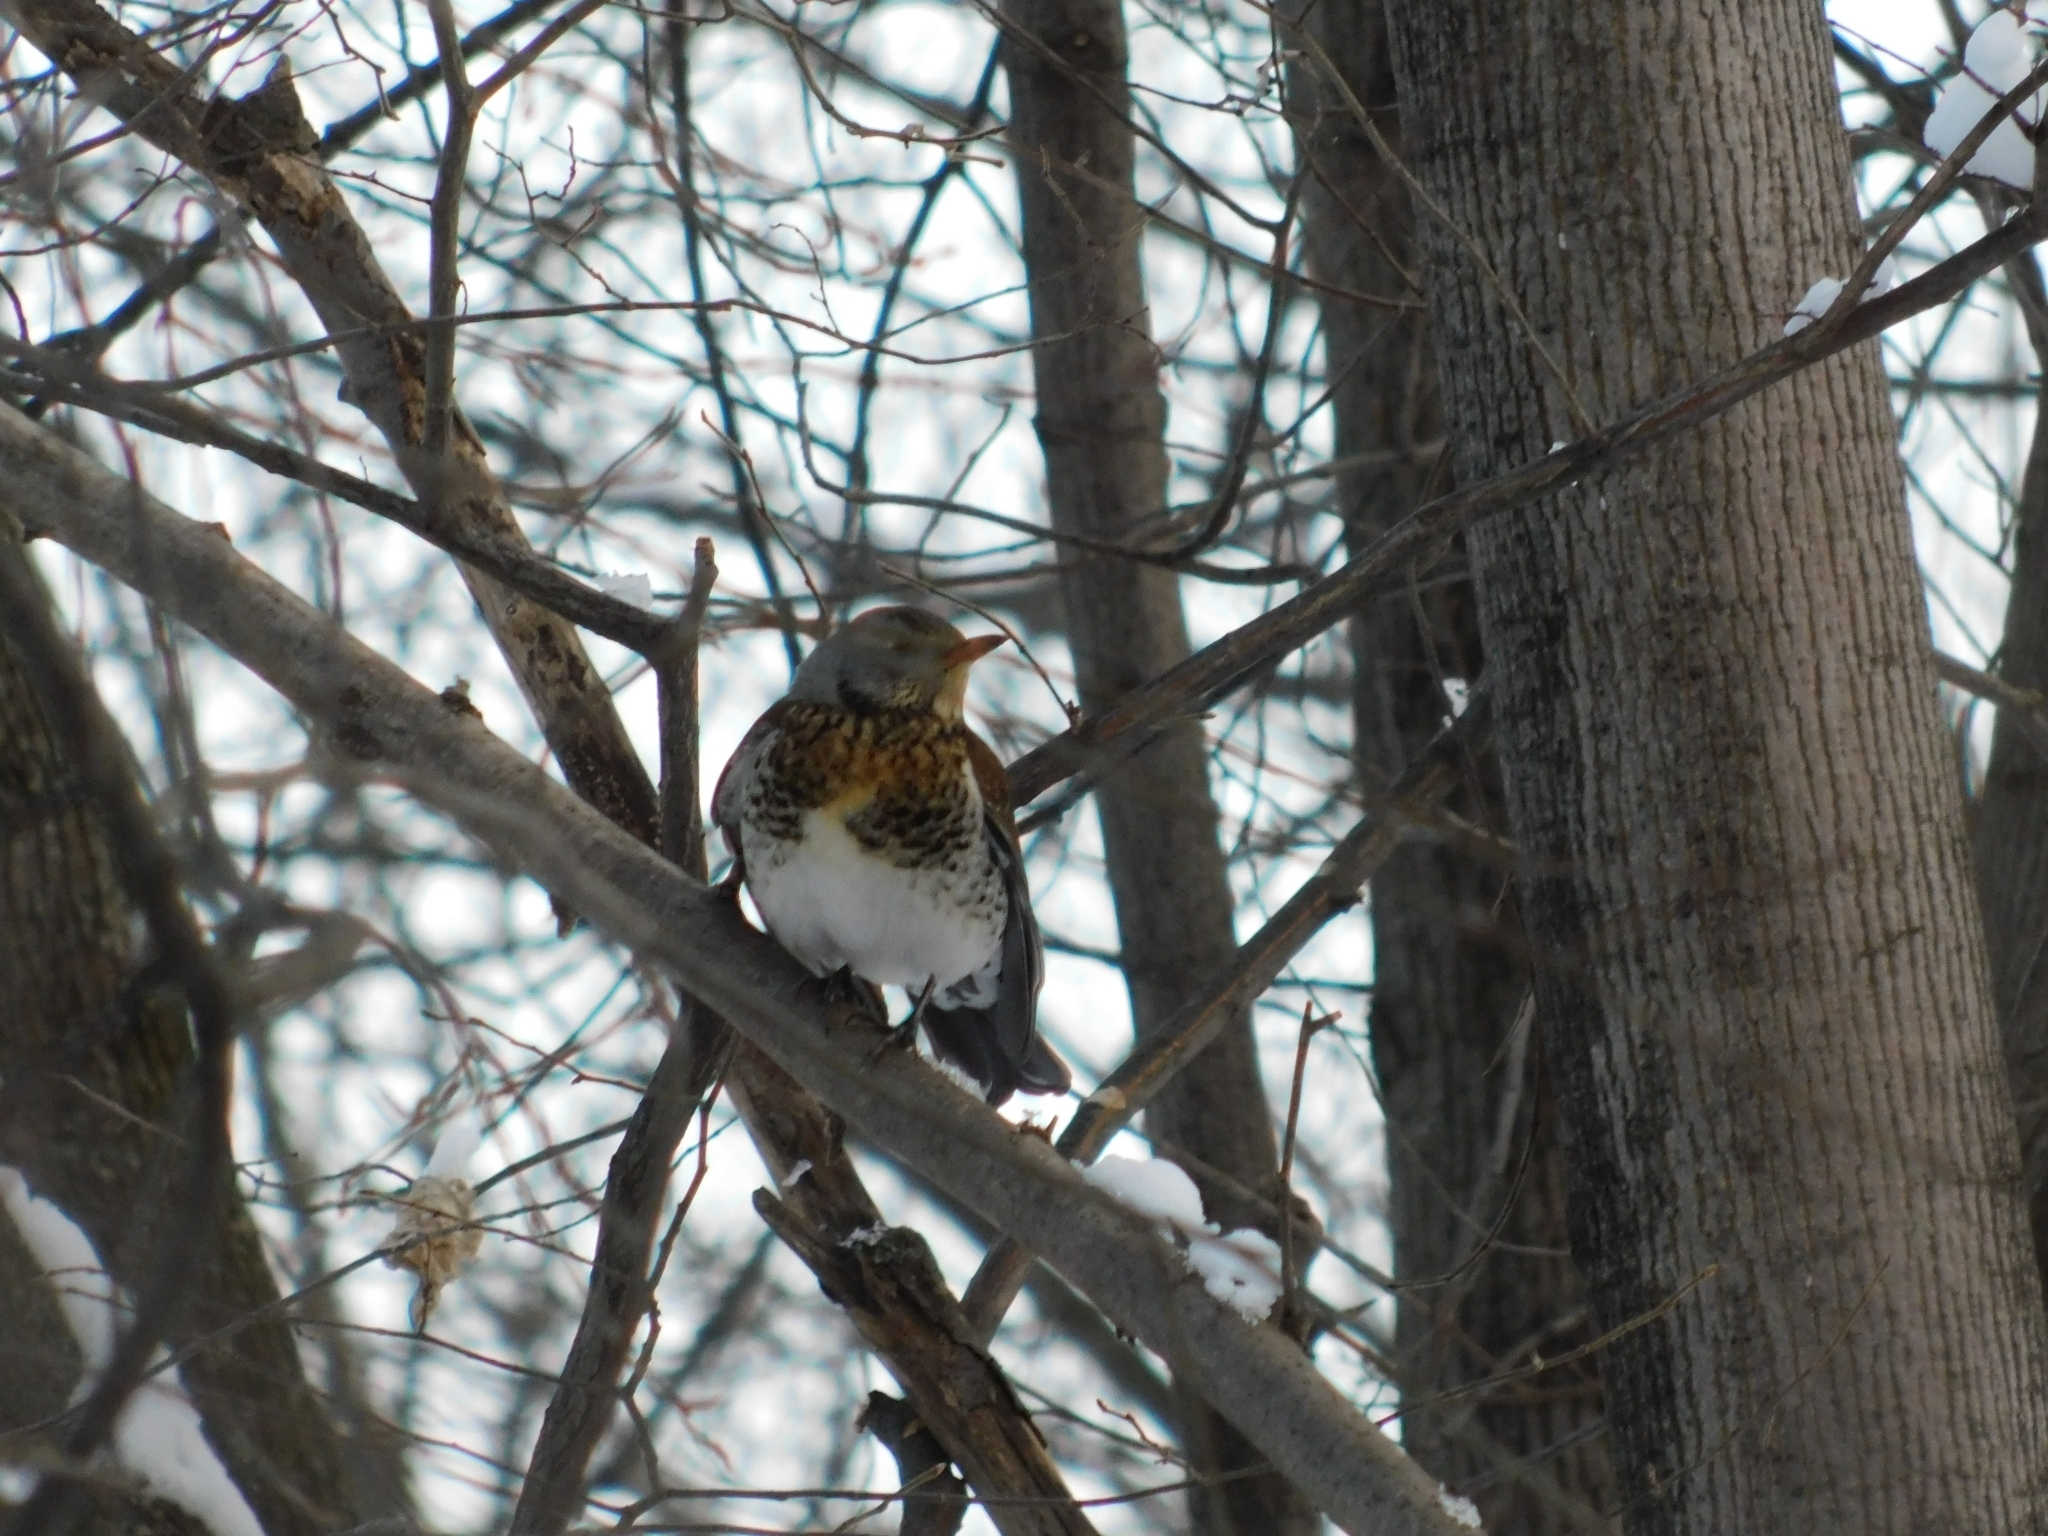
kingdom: Animalia
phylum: Chordata
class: Aves
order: Passeriformes
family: Turdidae
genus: Turdus
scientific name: Turdus pilaris
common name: Fieldfare
